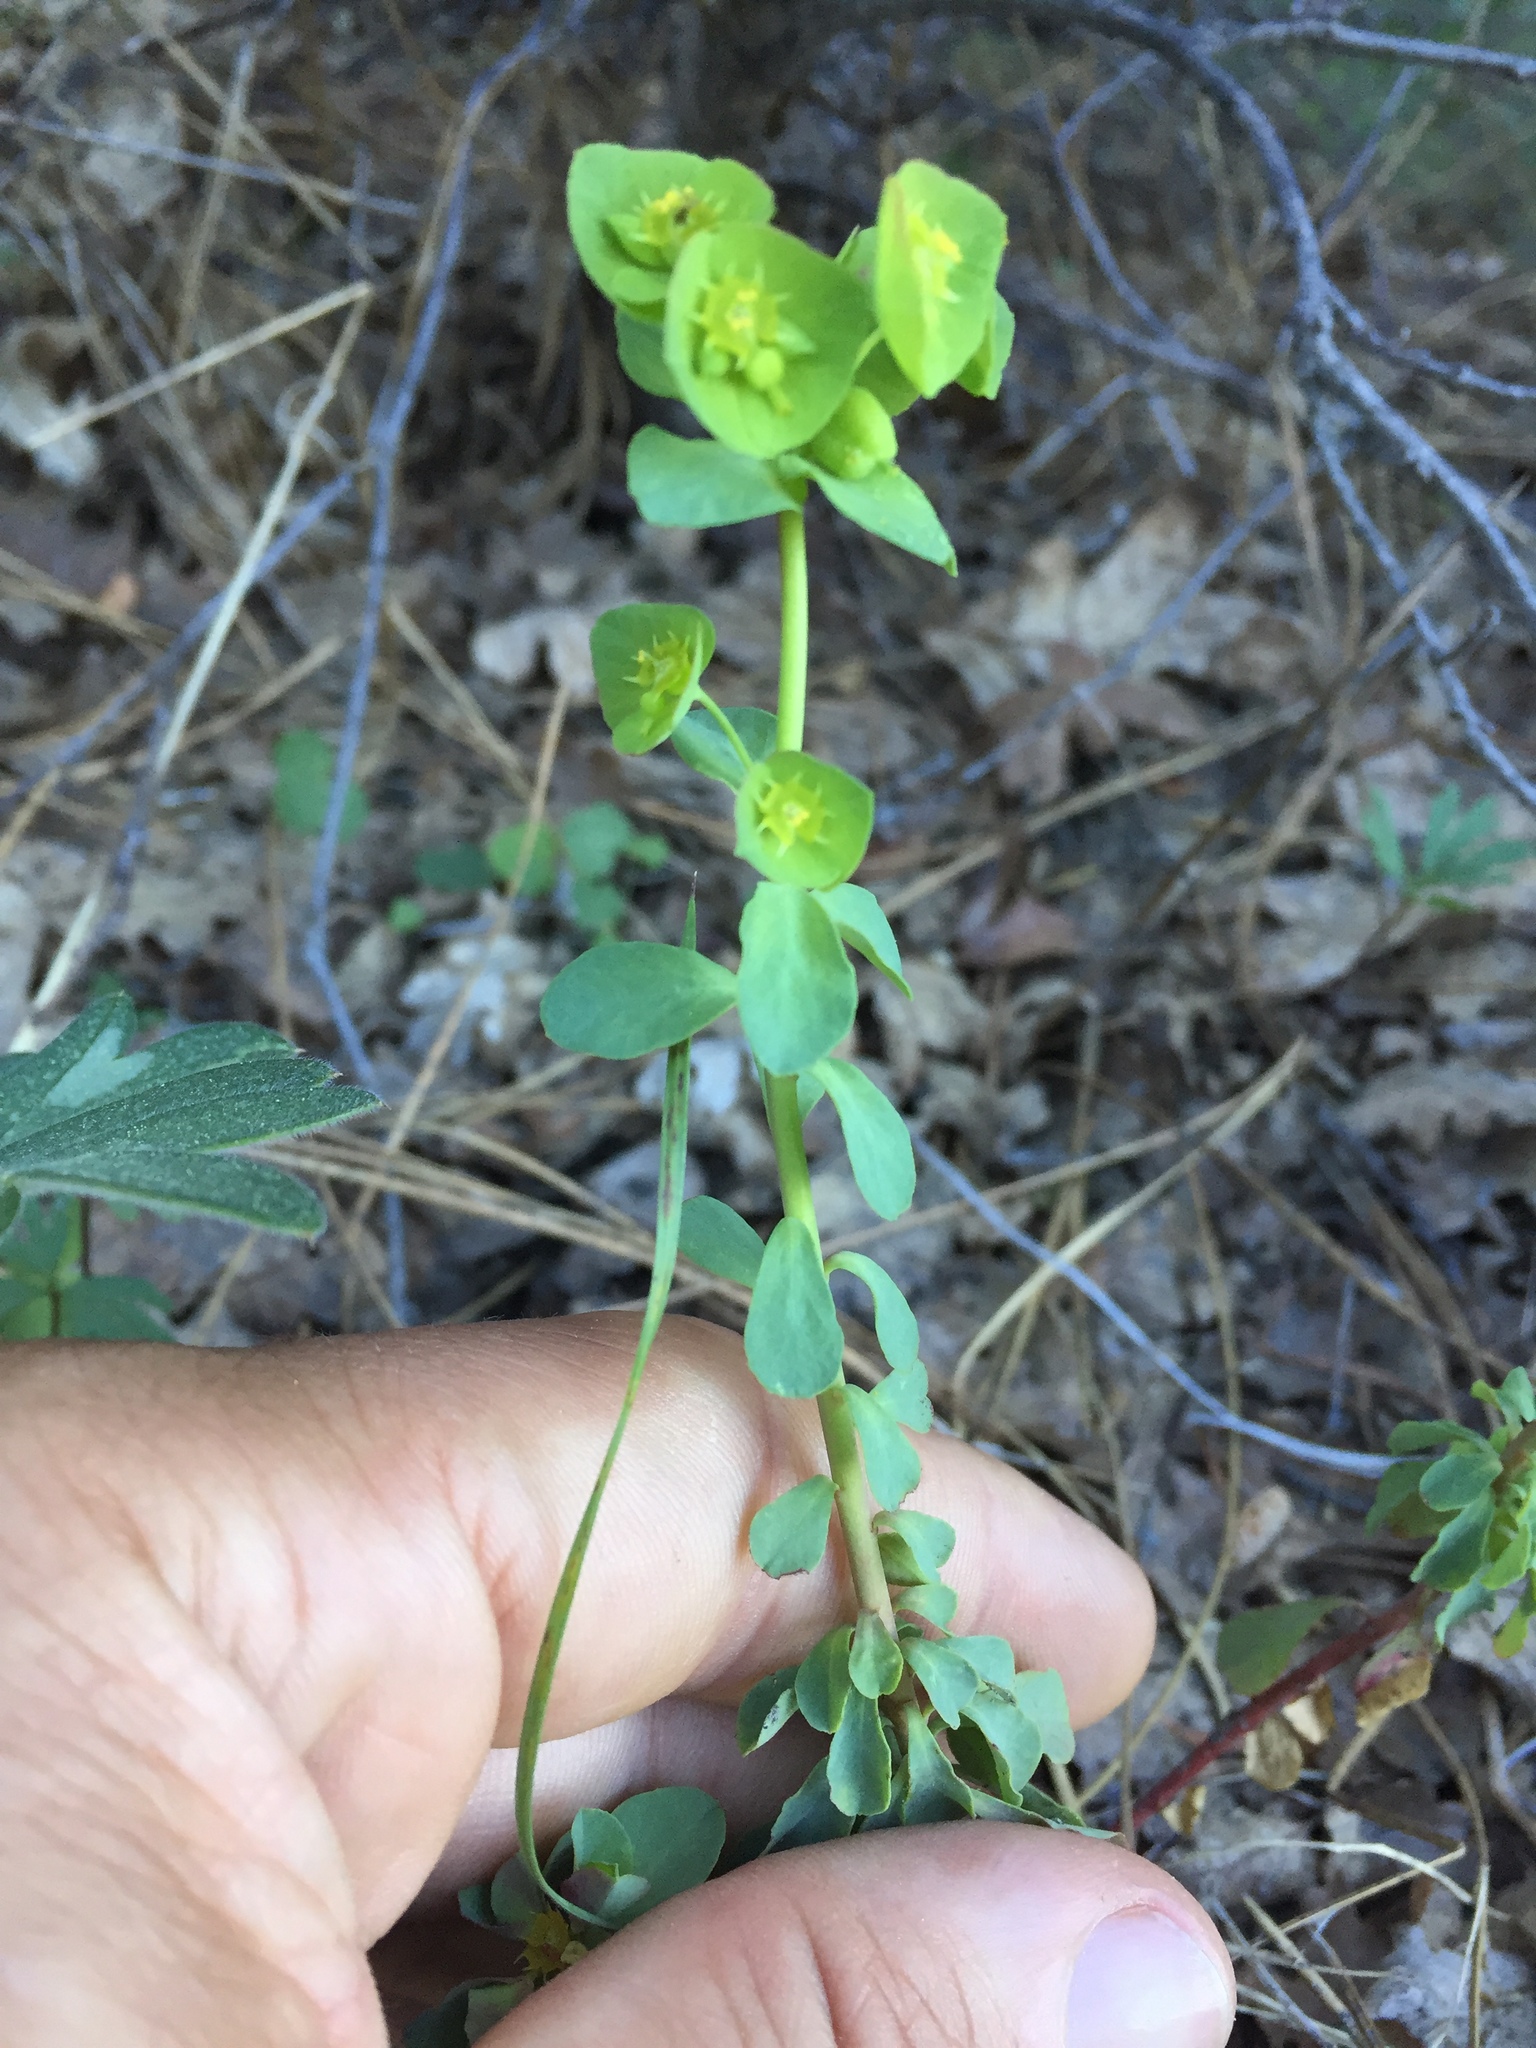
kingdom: Plantae
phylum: Tracheophyta
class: Magnoliopsida
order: Malpighiales
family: Euphorbiaceae
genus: Euphorbia
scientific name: Euphorbia crenulata
